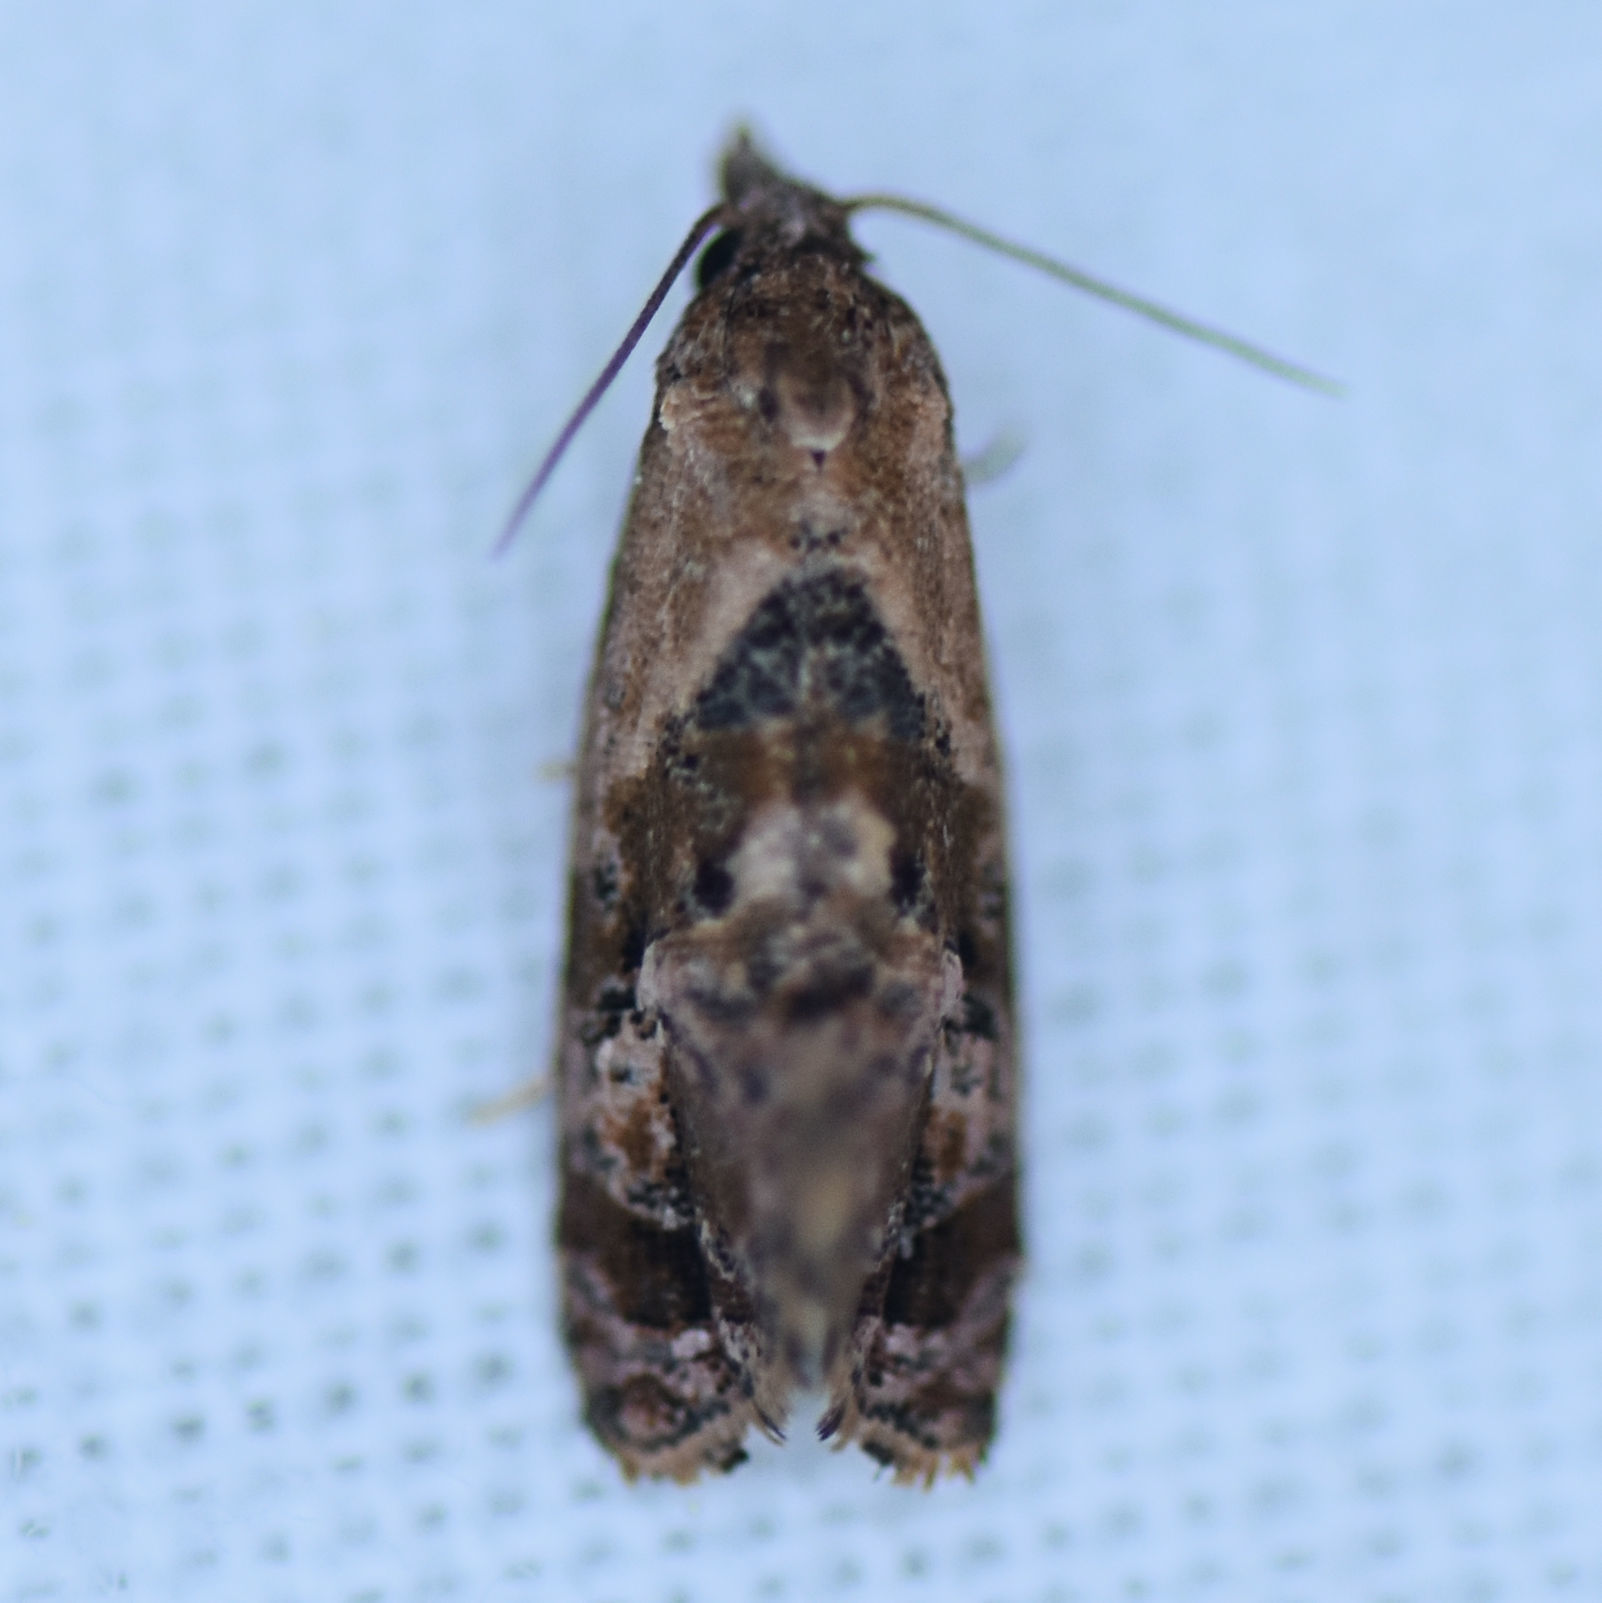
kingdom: Animalia
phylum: Arthropoda
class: Insecta
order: Lepidoptera
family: Tortricidae
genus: Cochylis
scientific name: Cochylis Cochylichroa hoffmanana
